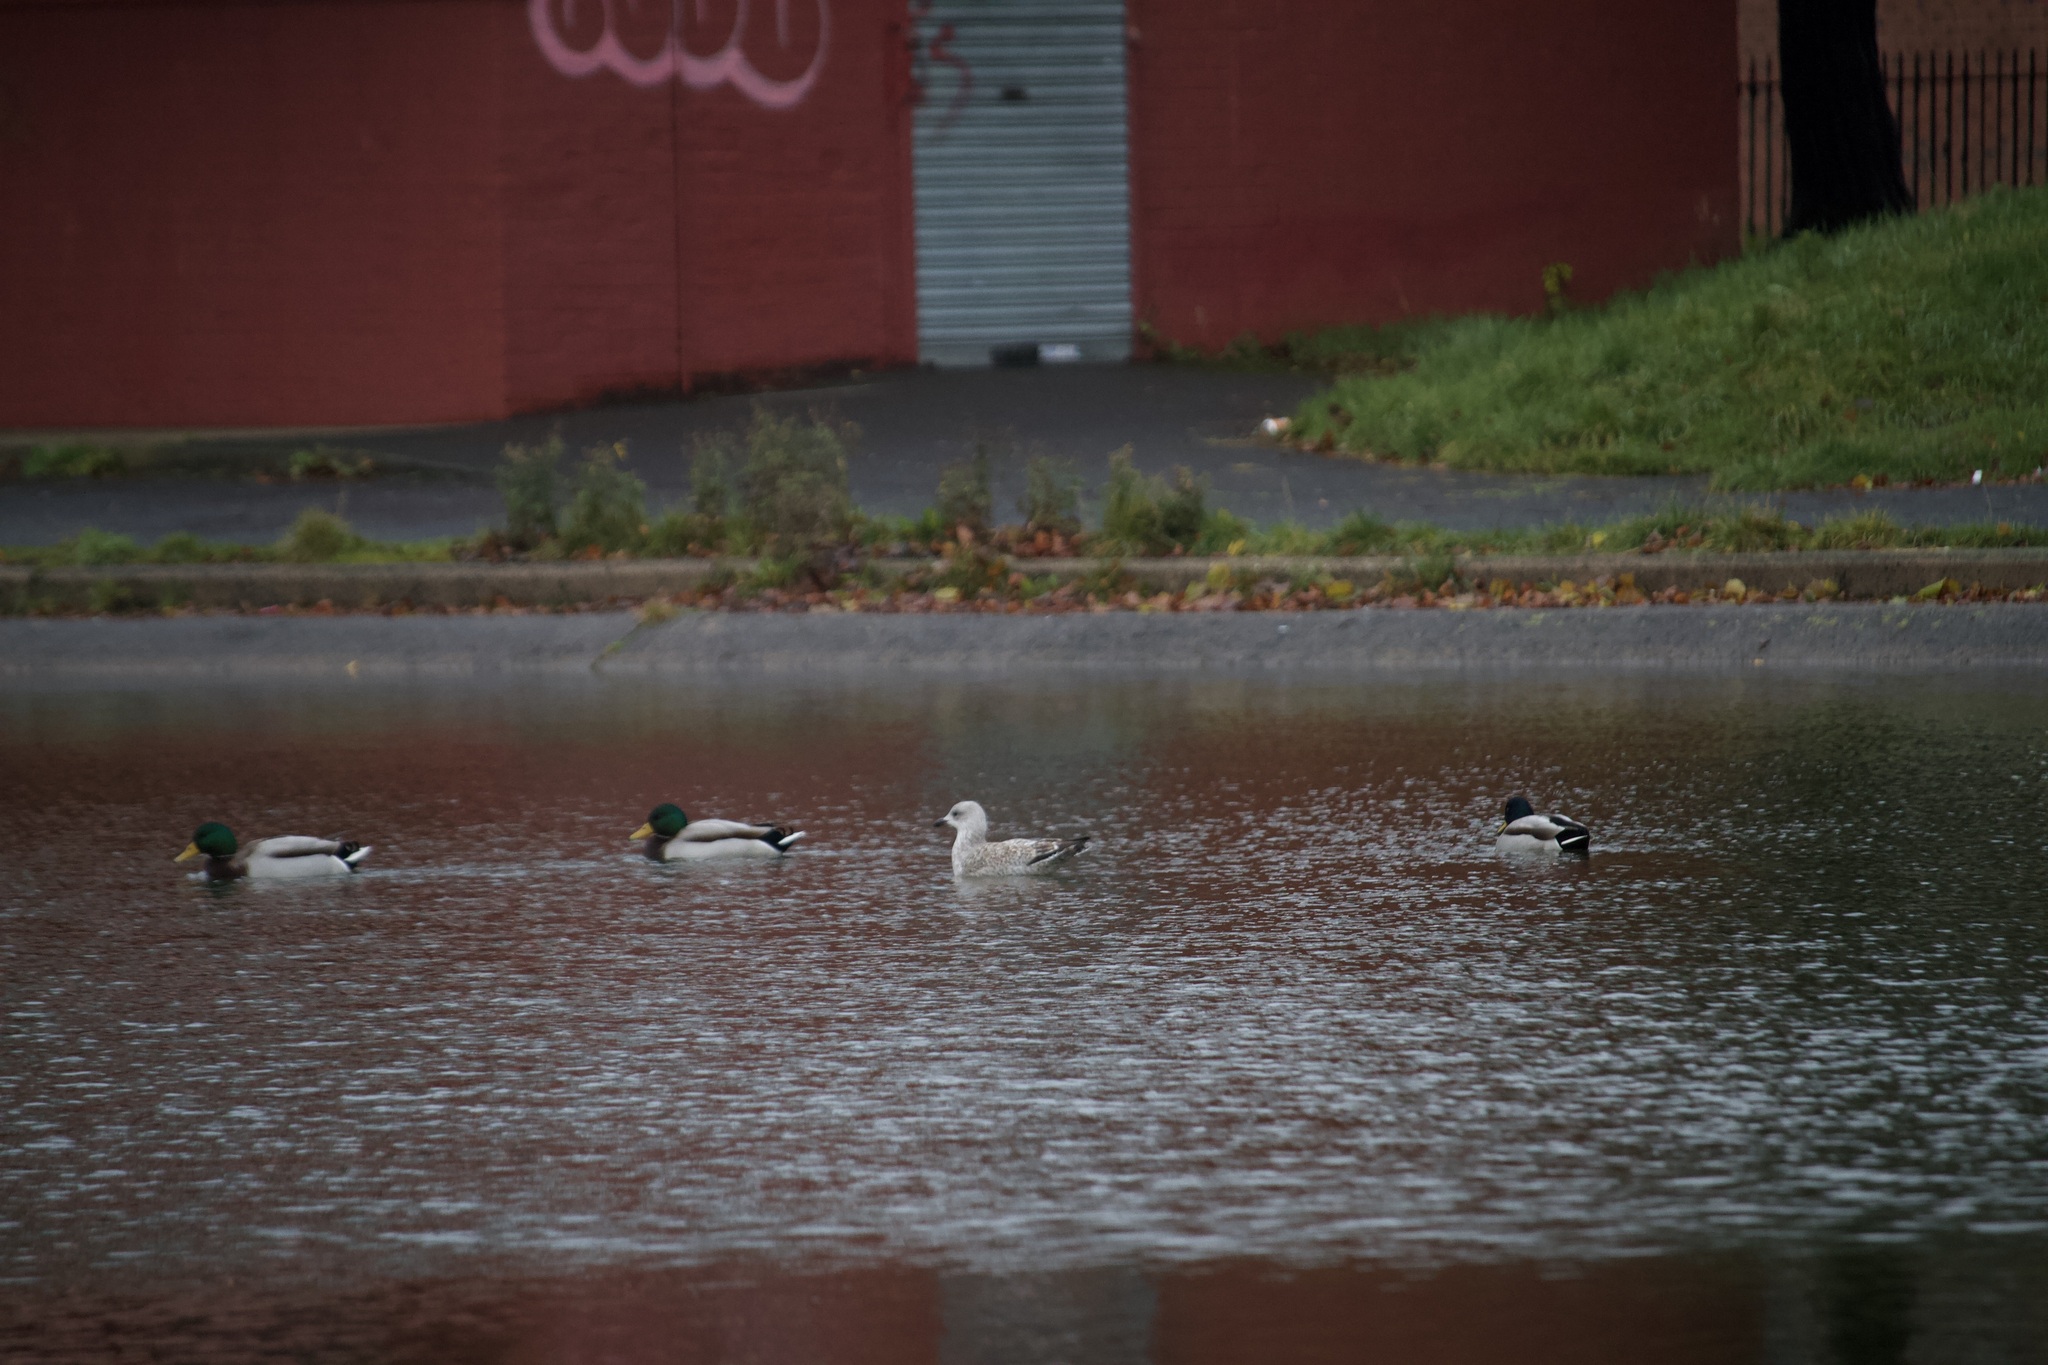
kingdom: Animalia
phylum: Chordata
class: Aves
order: Charadriiformes
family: Laridae
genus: Larus
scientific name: Larus argentatus
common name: Herring gull
